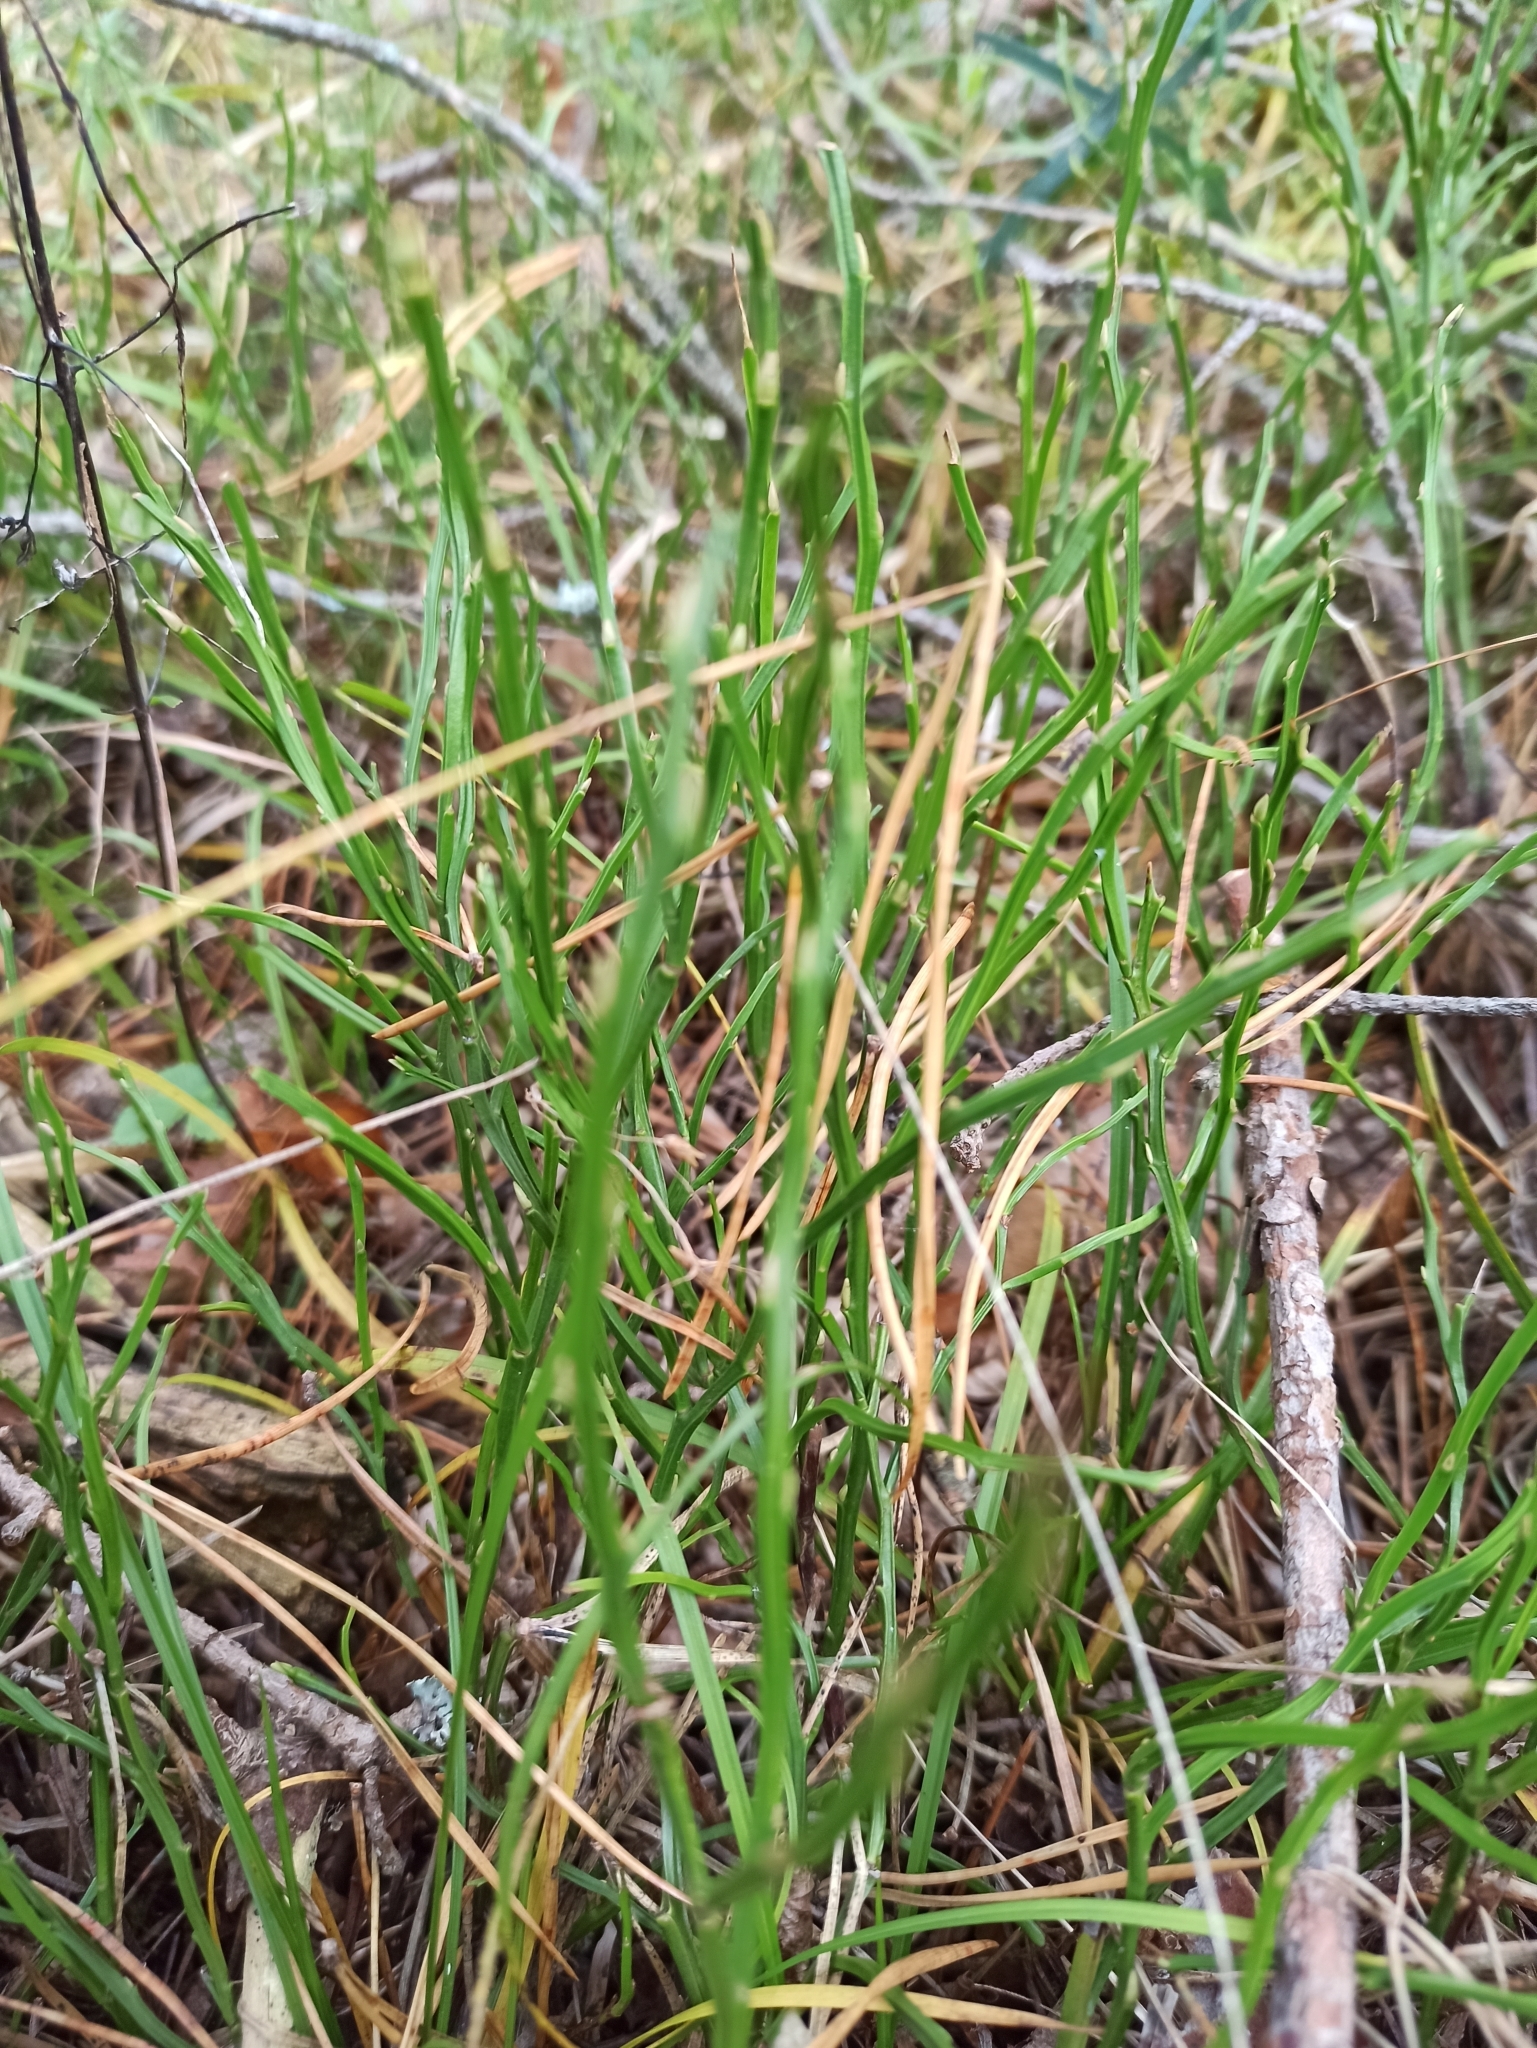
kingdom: Plantae
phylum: Tracheophyta
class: Magnoliopsida
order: Ericales
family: Ericaceae
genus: Vaccinium
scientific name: Vaccinium myrtillus
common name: Bilberry
